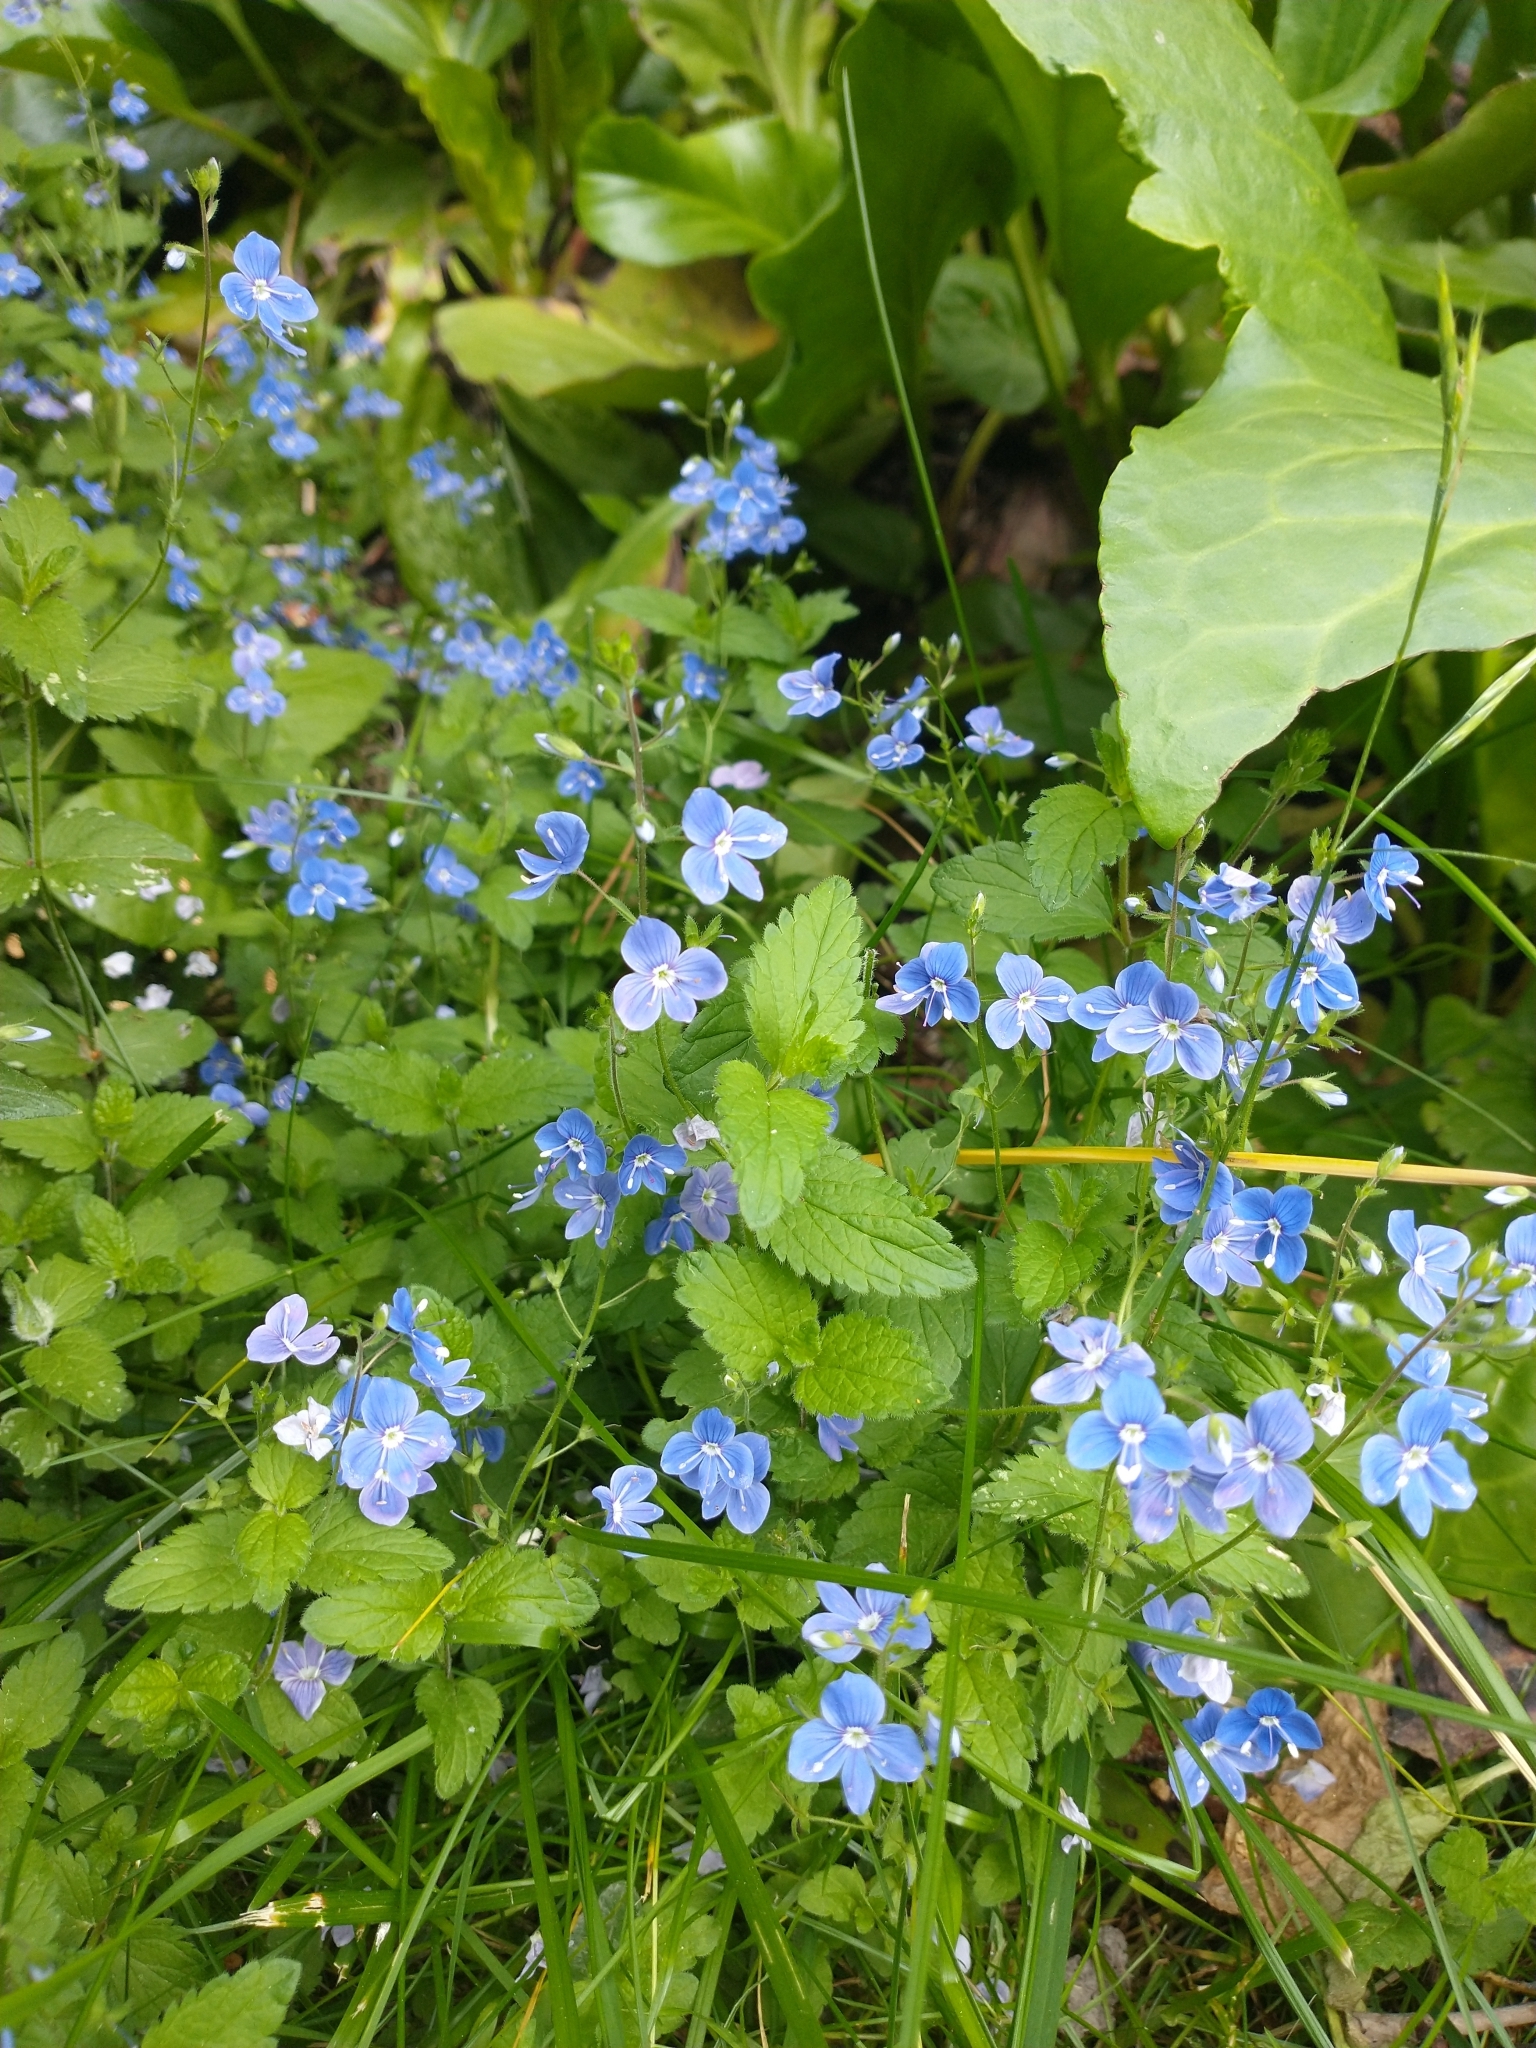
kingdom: Plantae
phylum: Tracheophyta
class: Magnoliopsida
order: Lamiales
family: Plantaginaceae
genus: Veronica
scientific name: Veronica chamaedrys
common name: Germander speedwell
